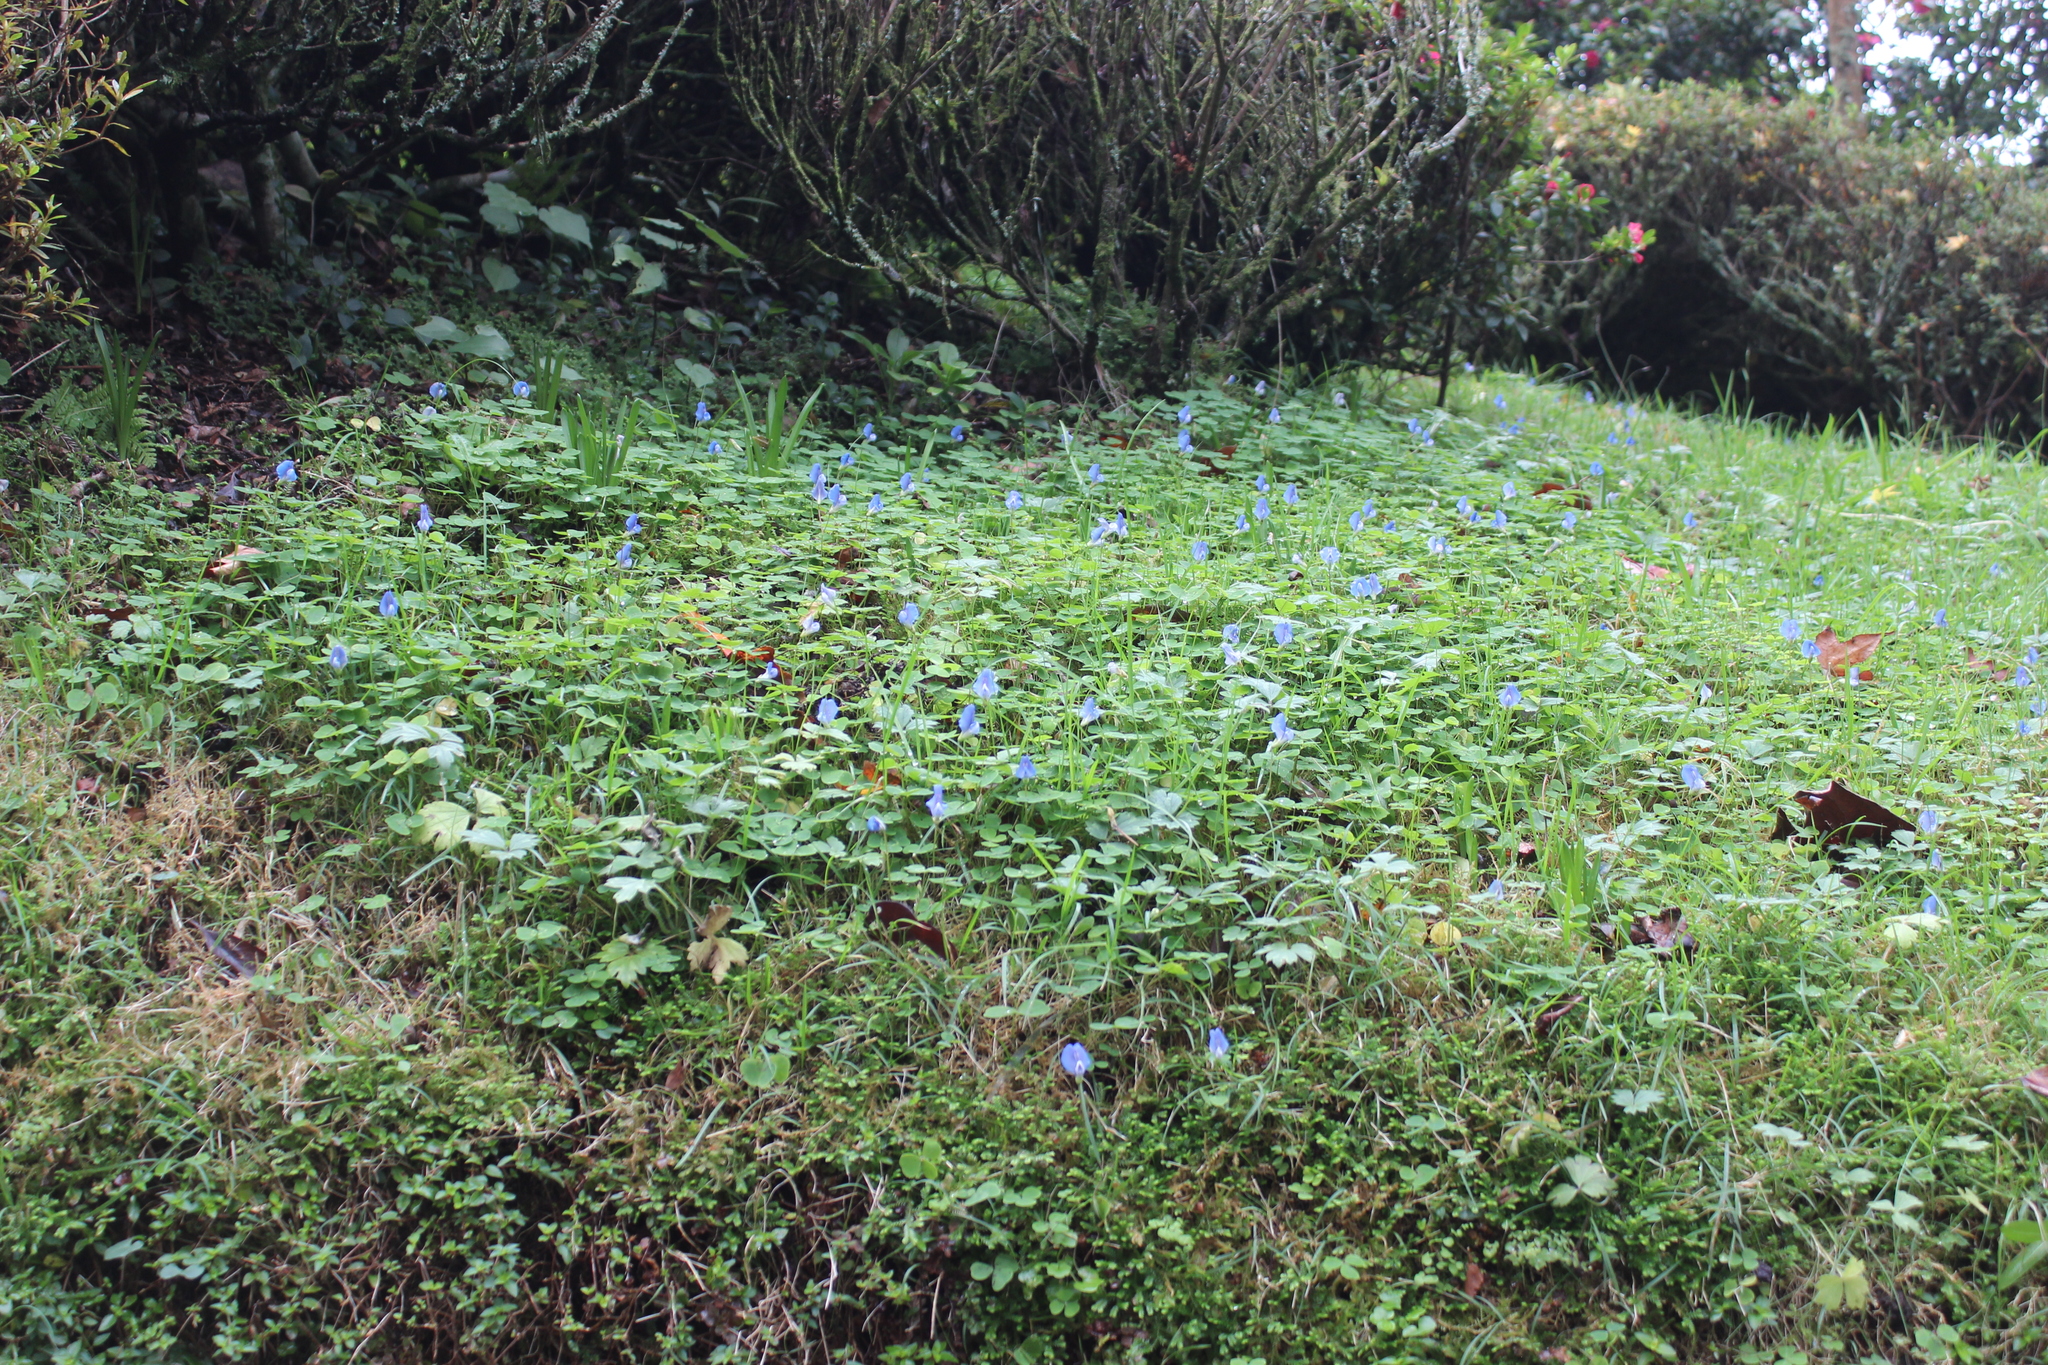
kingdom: Plantae
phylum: Tracheophyta
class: Magnoliopsida
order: Fabales
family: Fabaceae
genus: Parochetus
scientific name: Parochetus communis
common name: Blue oxalis
